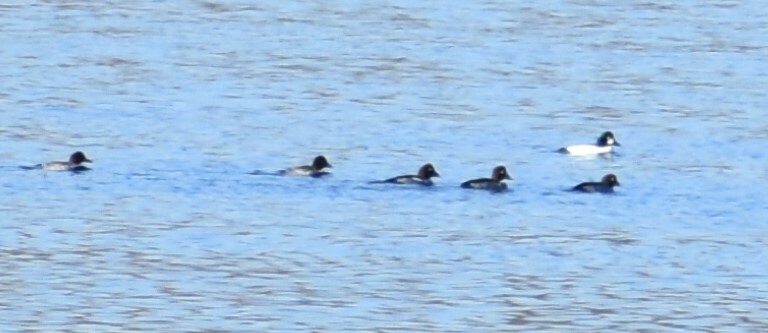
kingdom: Animalia
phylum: Chordata
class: Aves
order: Anseriformes
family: Anatidae
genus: Bucephala
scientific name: Bucephala clangula
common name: Common goldeneye
